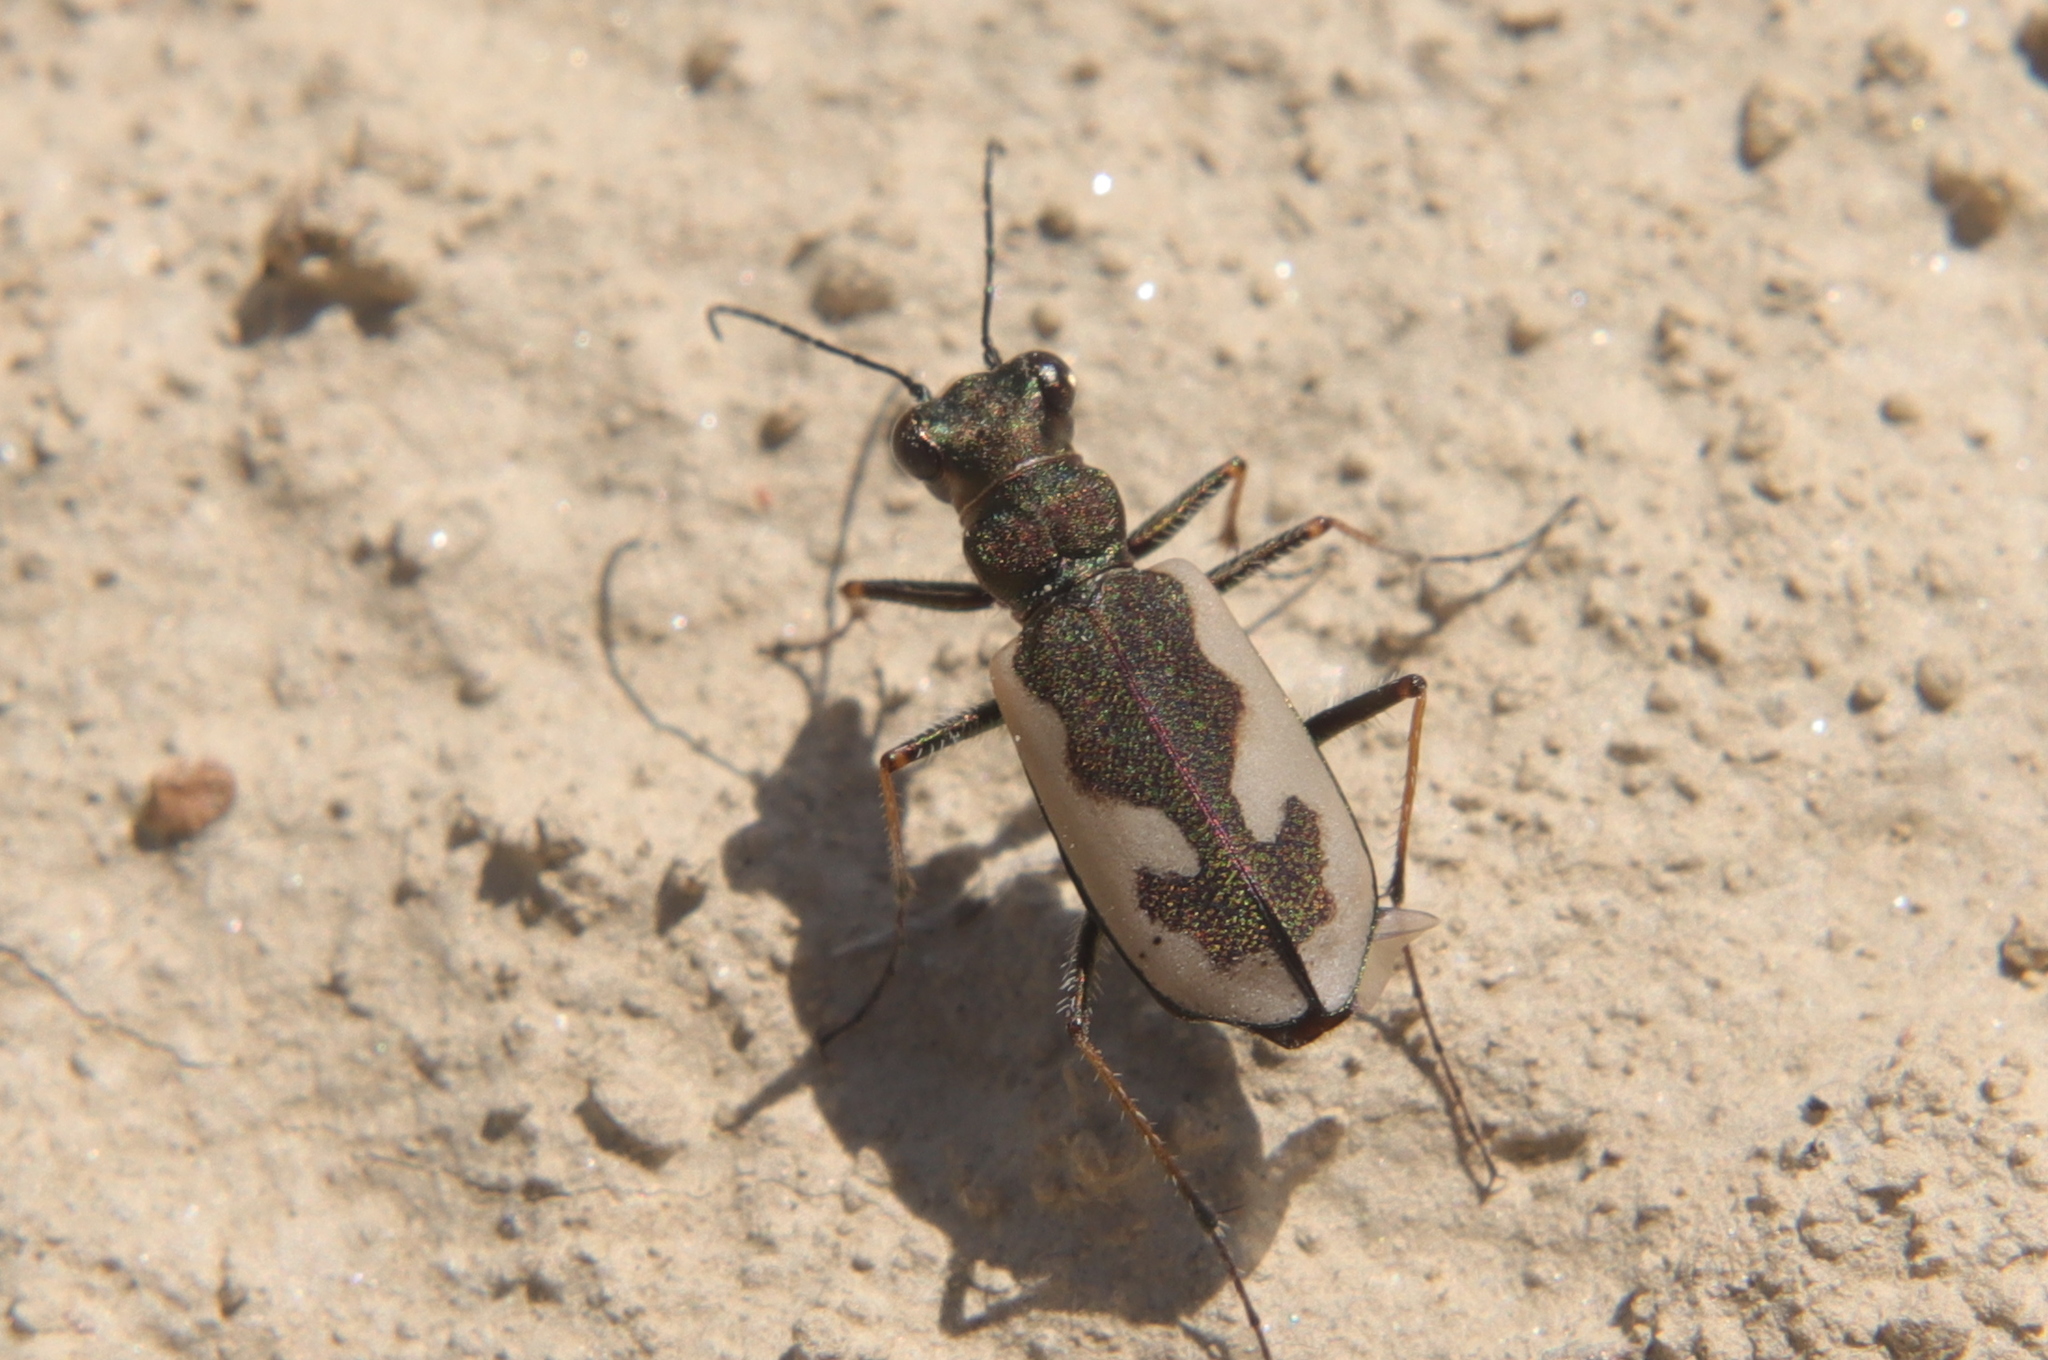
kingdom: Animalia
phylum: Arthropoda
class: Insecta
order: Coleoptera
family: Carabidae
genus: Neocicindela
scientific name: Neocicindela latecincta
